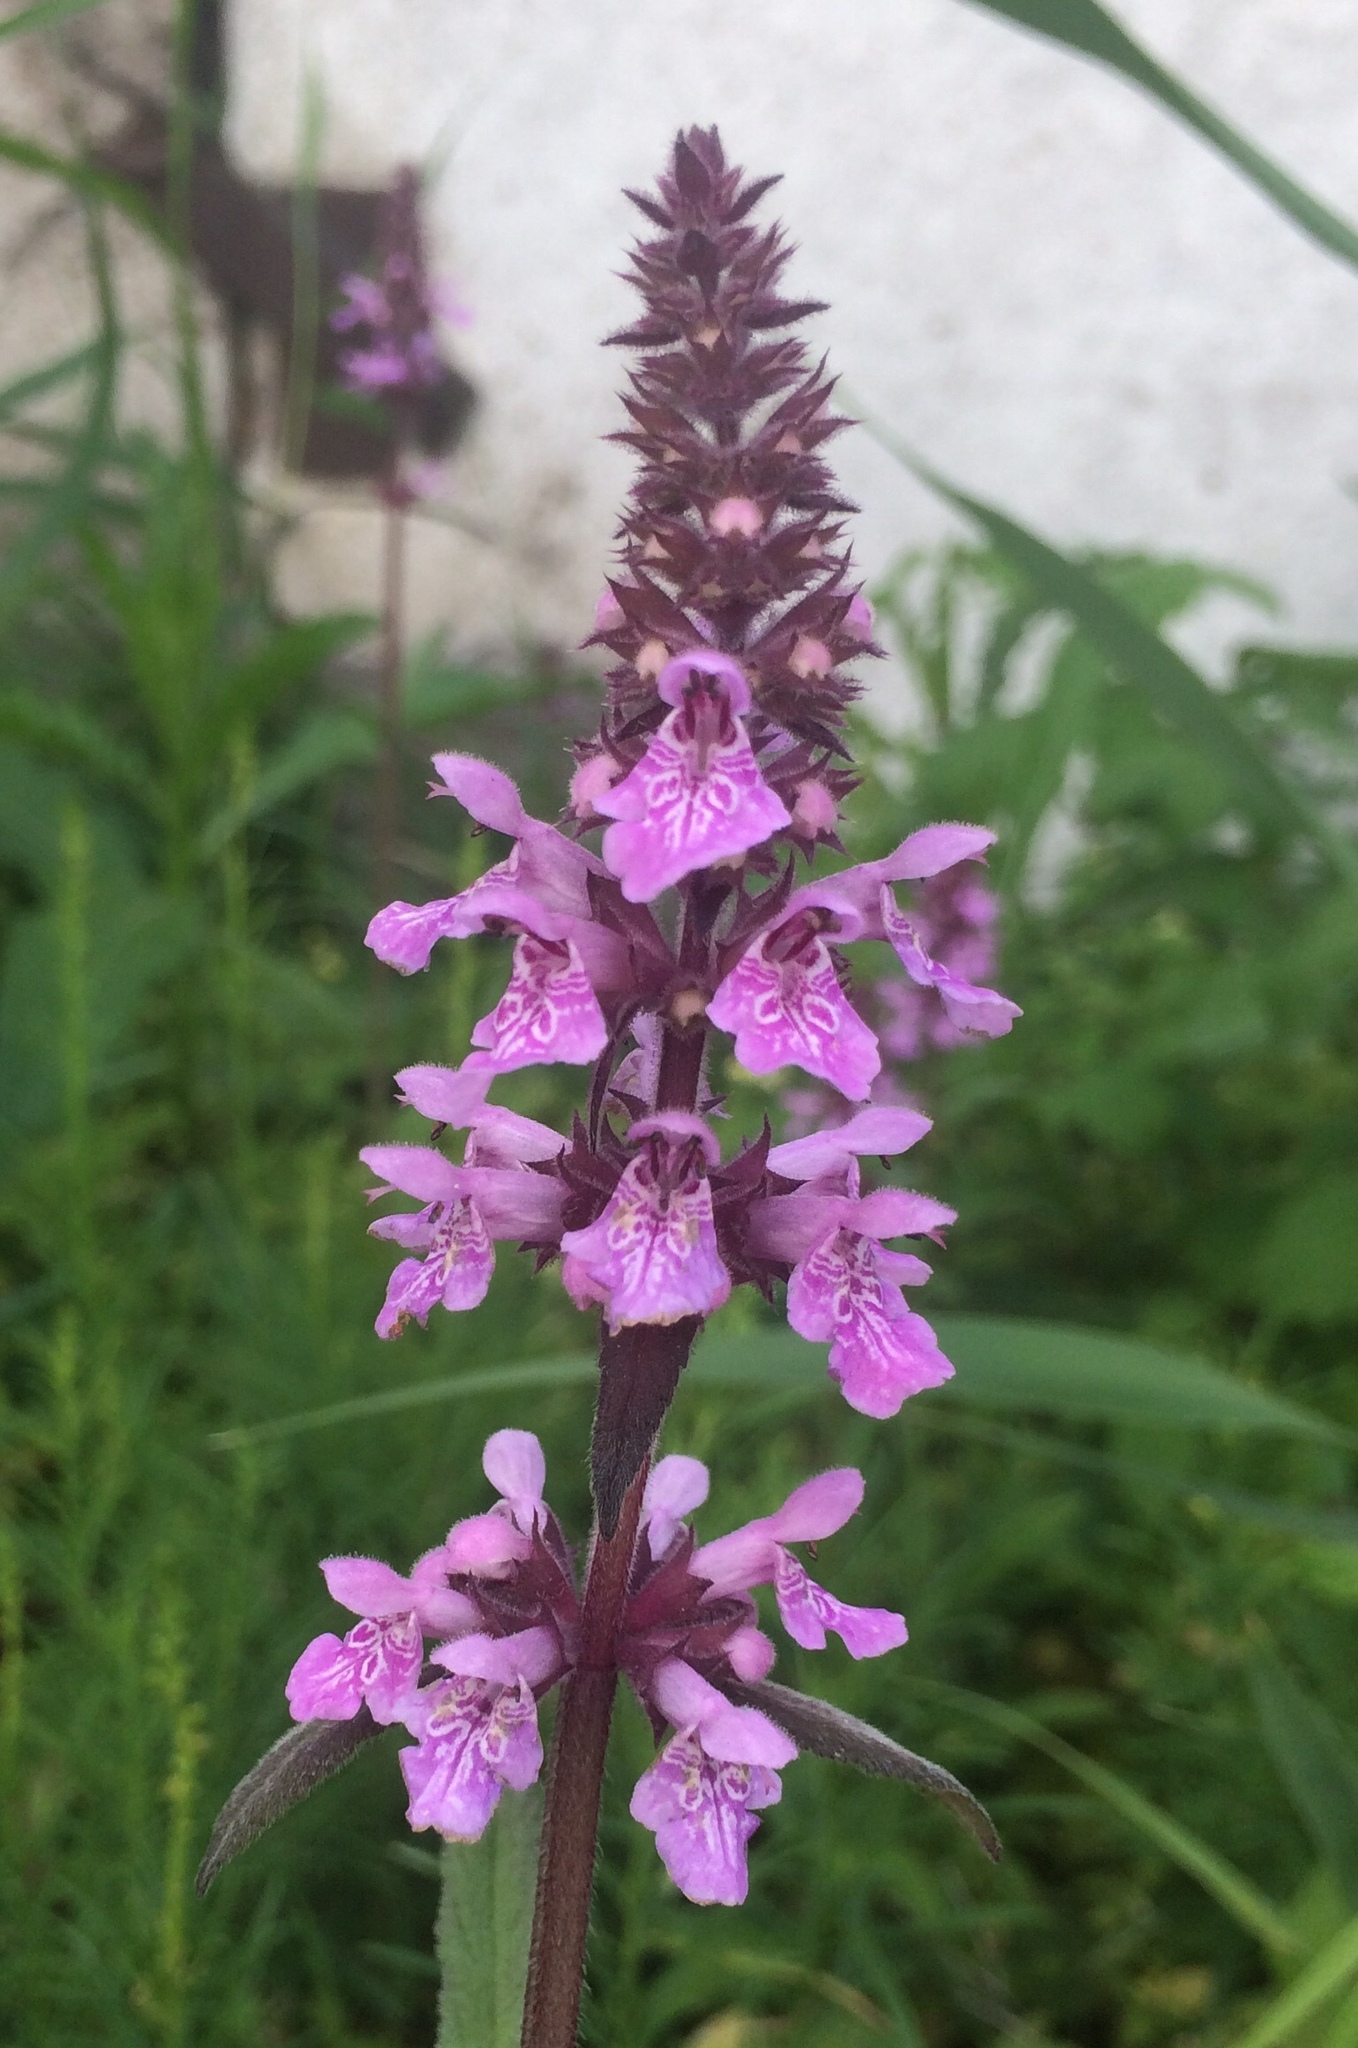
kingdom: Plantae
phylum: Tracheophyta
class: Magnoliopsida
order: Lamiales
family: Lamiaceae
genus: Stachys
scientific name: Stachys palustris
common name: Marsh woundwort
